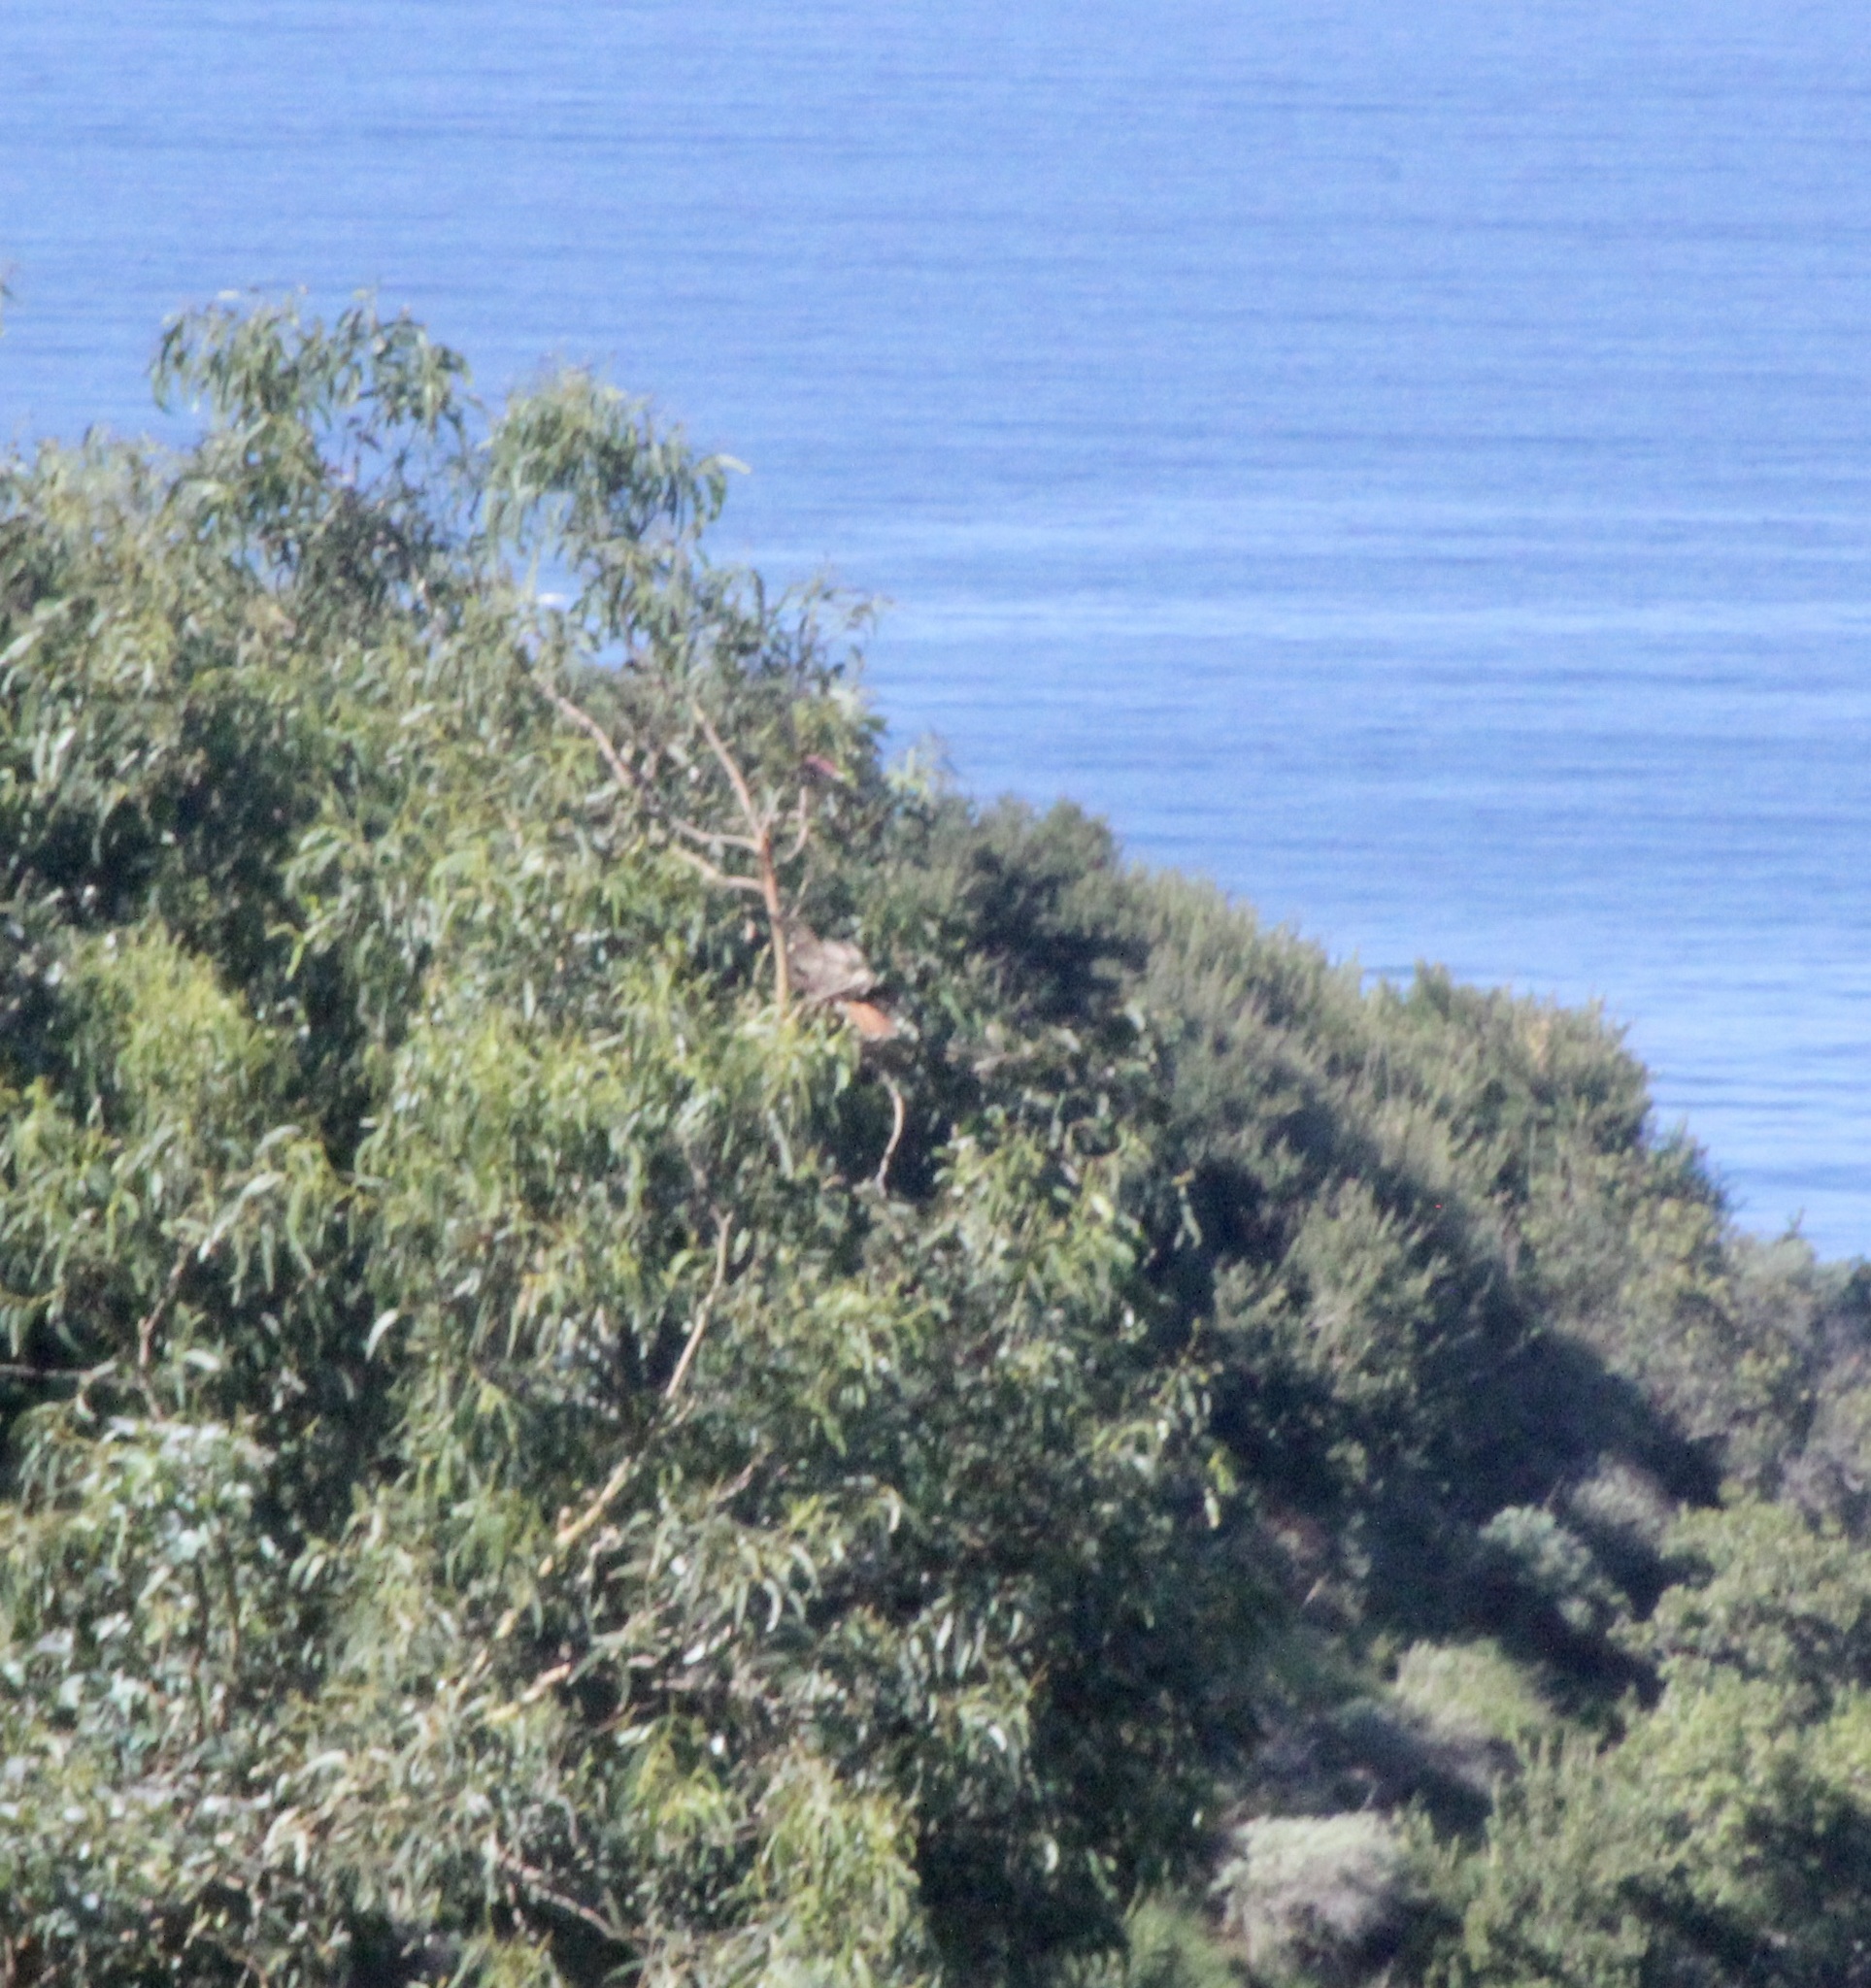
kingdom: Animalia
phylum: Chordata
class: Aves
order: Accipitriformes
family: Accipitridae
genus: Buteo
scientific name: Buteo jamaicensis
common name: Red-tailed hawk
